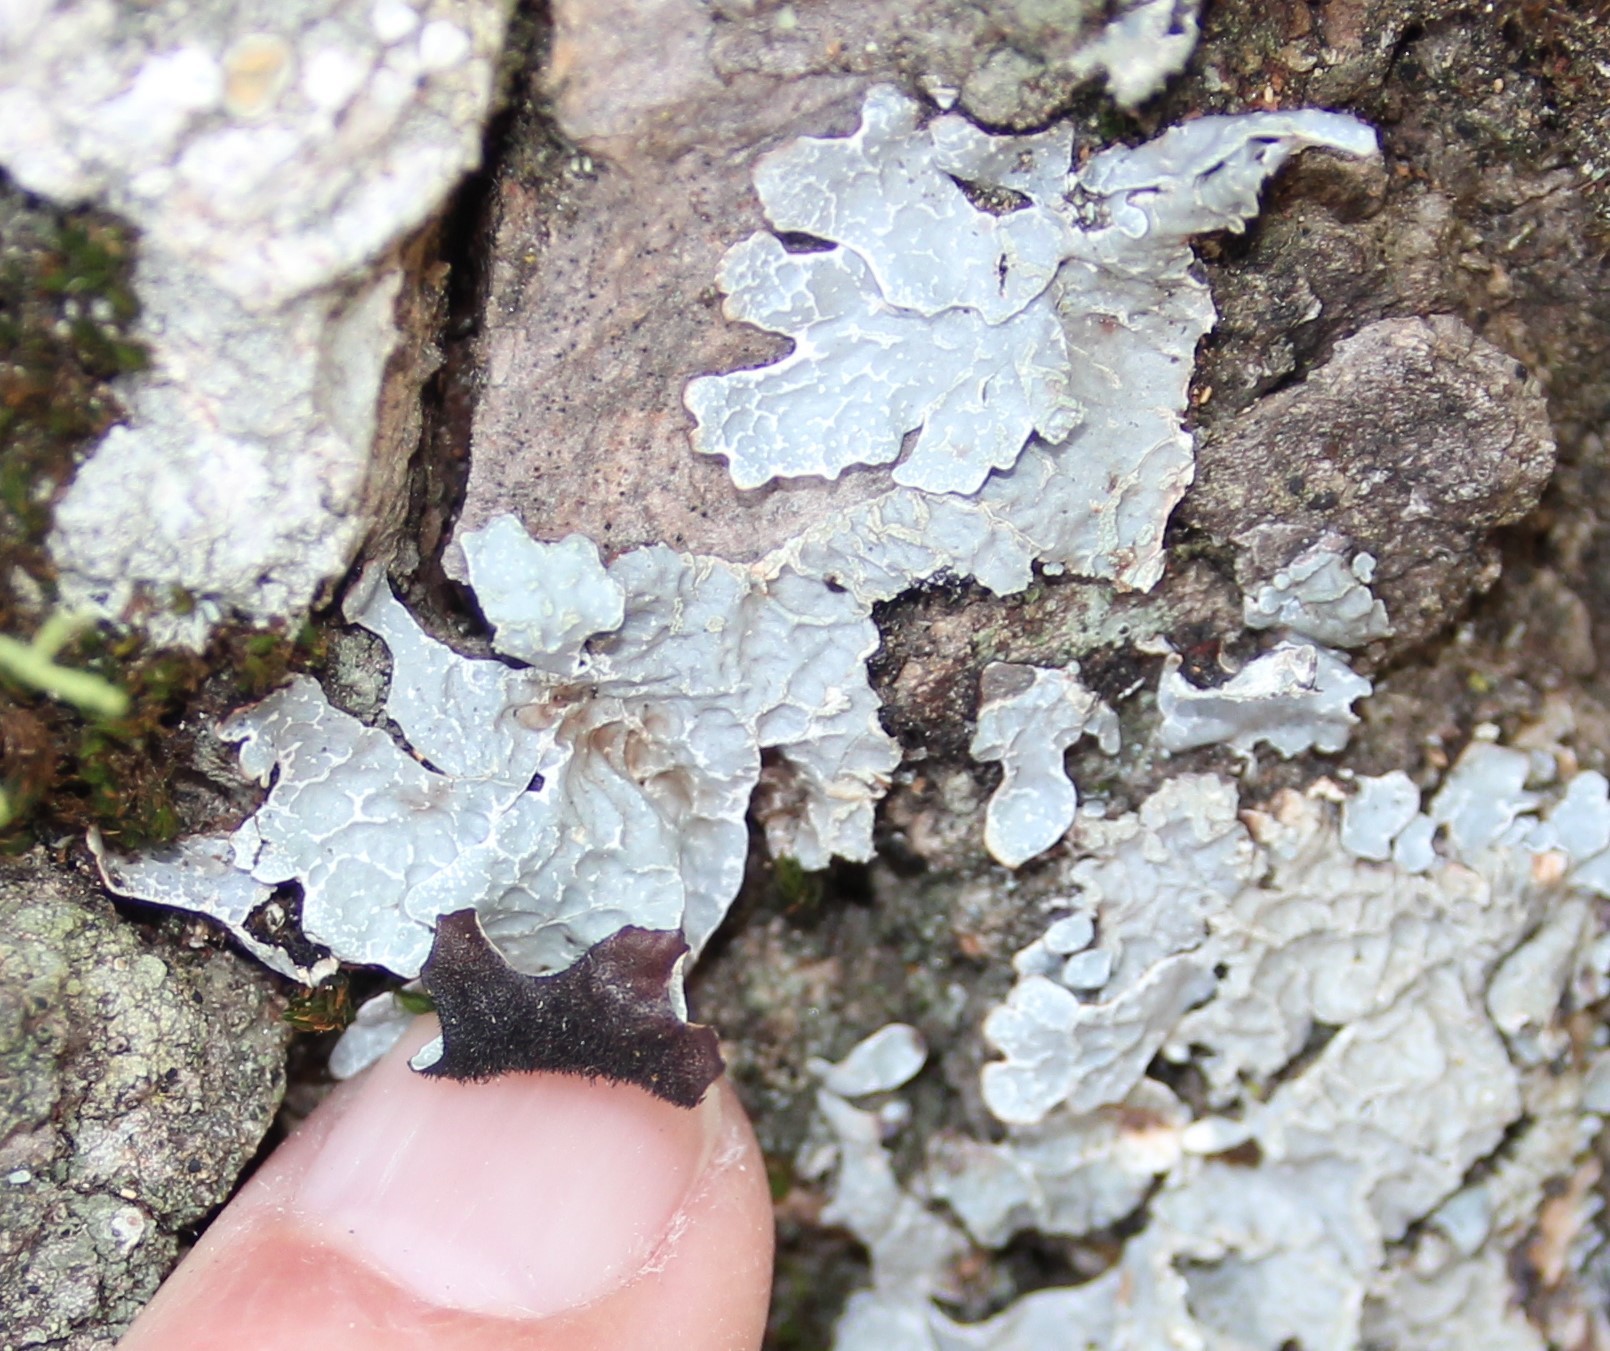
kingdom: Fungi
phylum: Ascomycota
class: Lecanoromycetes
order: Lecanorales
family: Parmeliaceae
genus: Parmelia
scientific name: Parmelia sulcata
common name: Netted shield lichen
